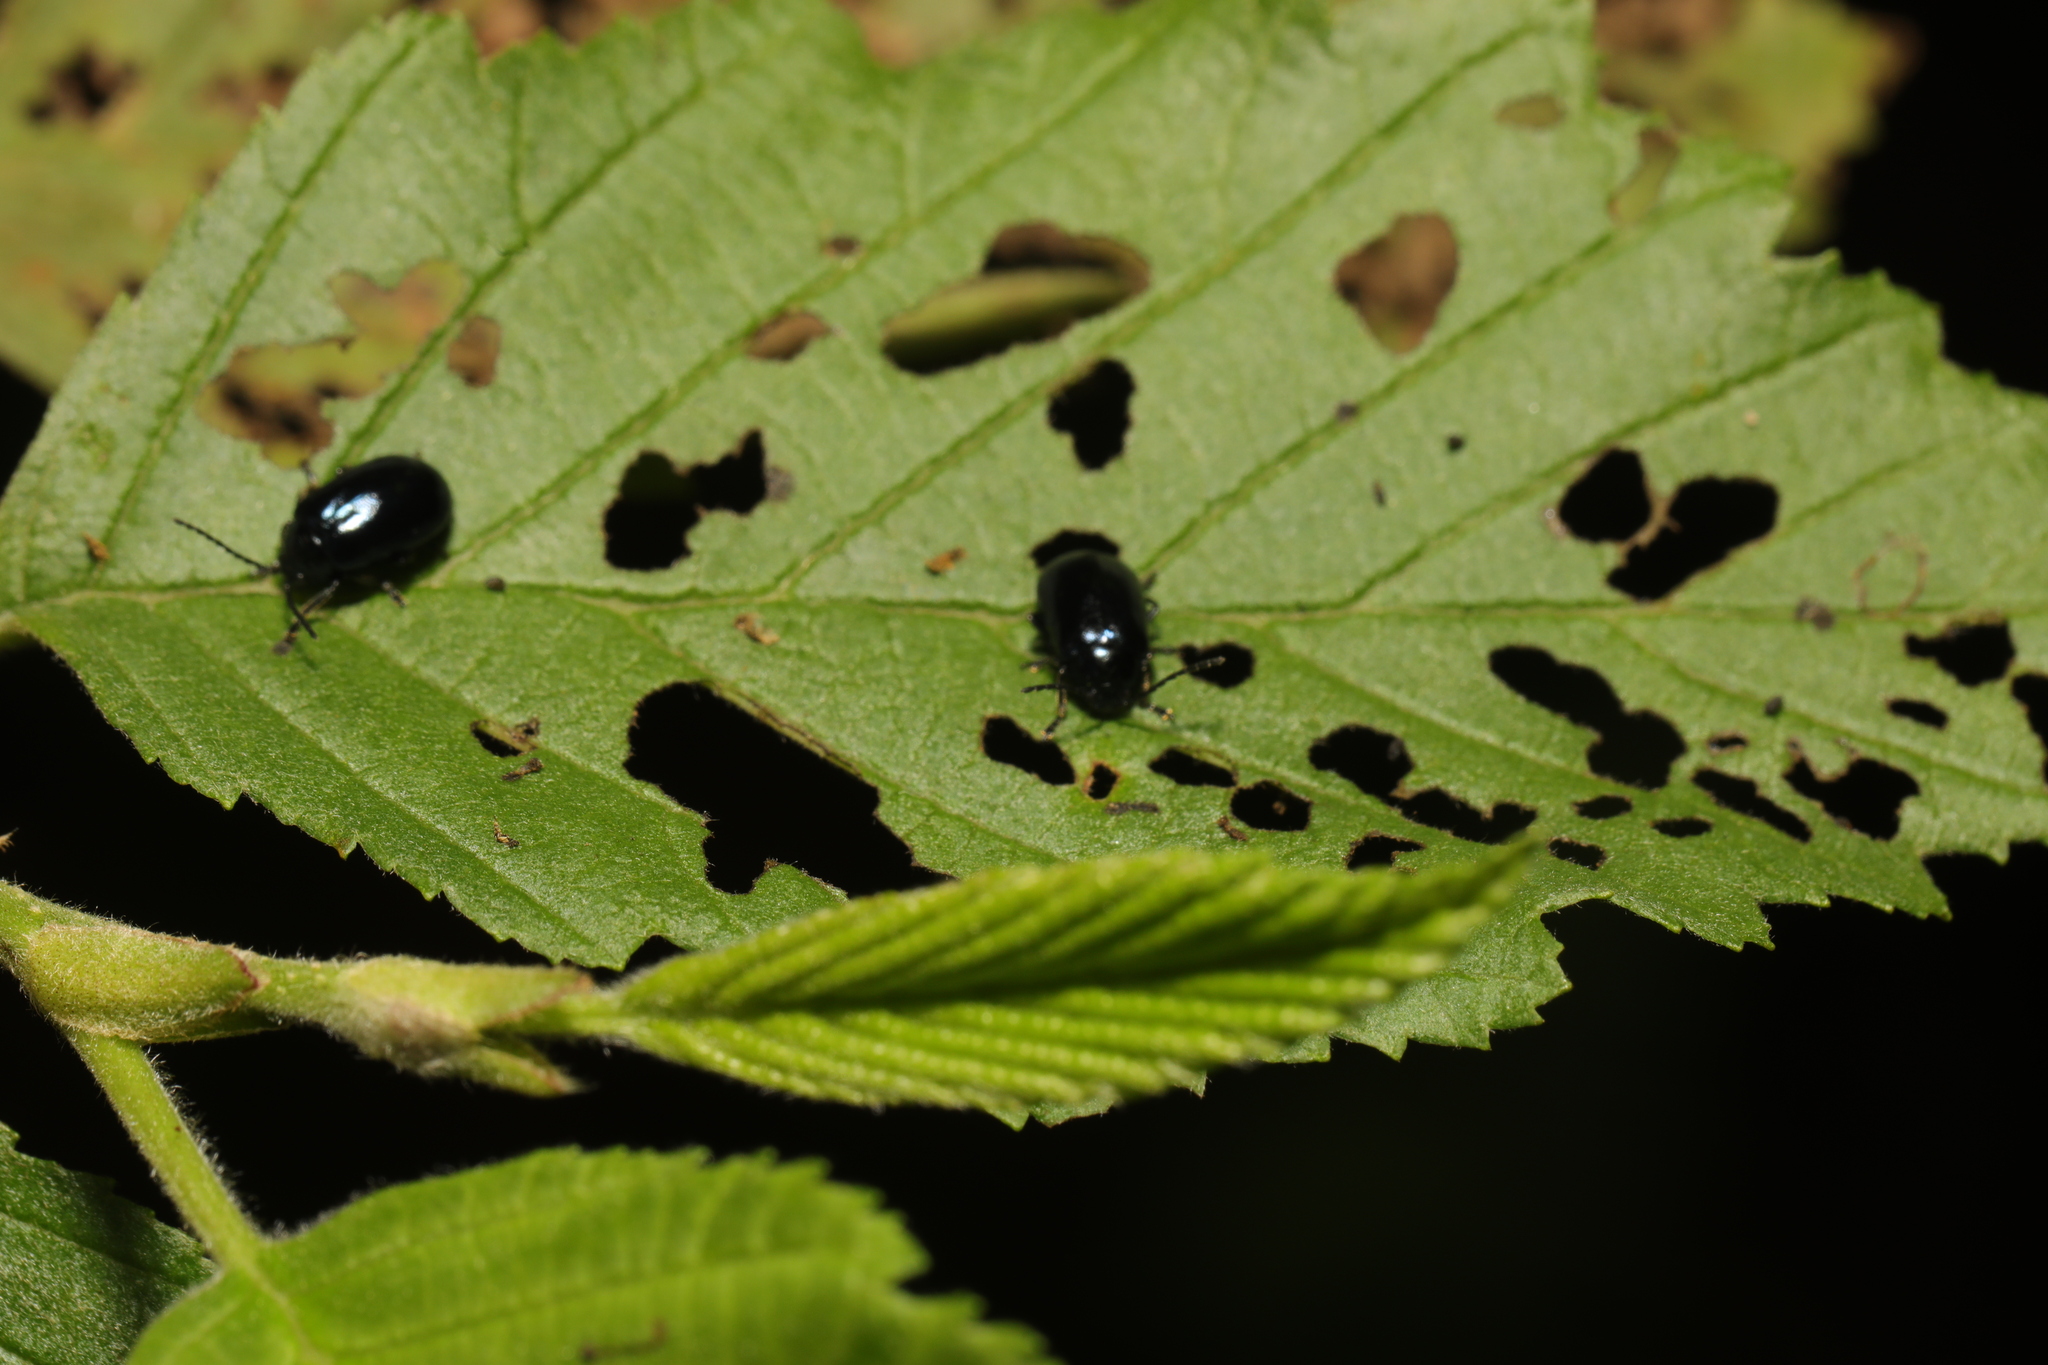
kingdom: Animalia
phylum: Arthropoda
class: Insecta
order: Coleoptera
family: Chrysomelidae
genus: Agelastica
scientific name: Agelastica alni
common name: Alder leaf beetle
